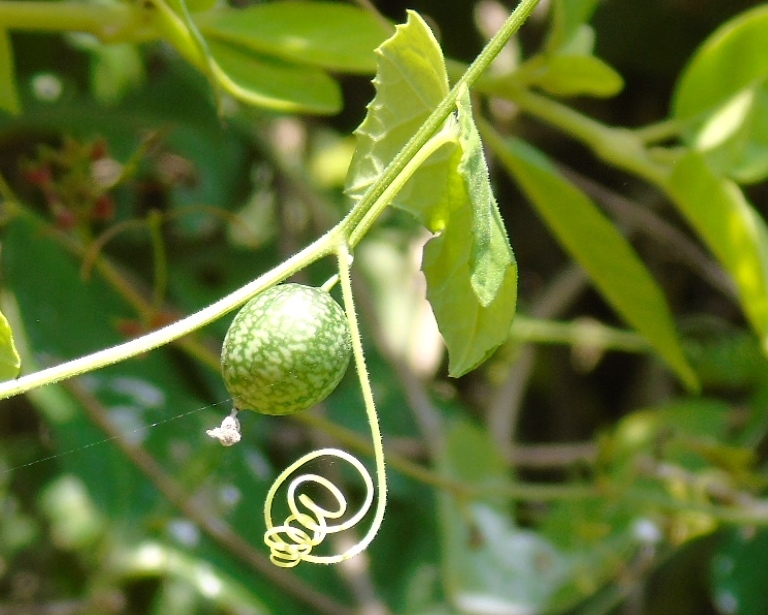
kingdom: Plantae
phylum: Tracheophyta
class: Magnoliopsida
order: Cucurbitales
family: Cucurbitaceae
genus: Melothria
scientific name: Melothria pendula
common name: Creeping-cucumber
